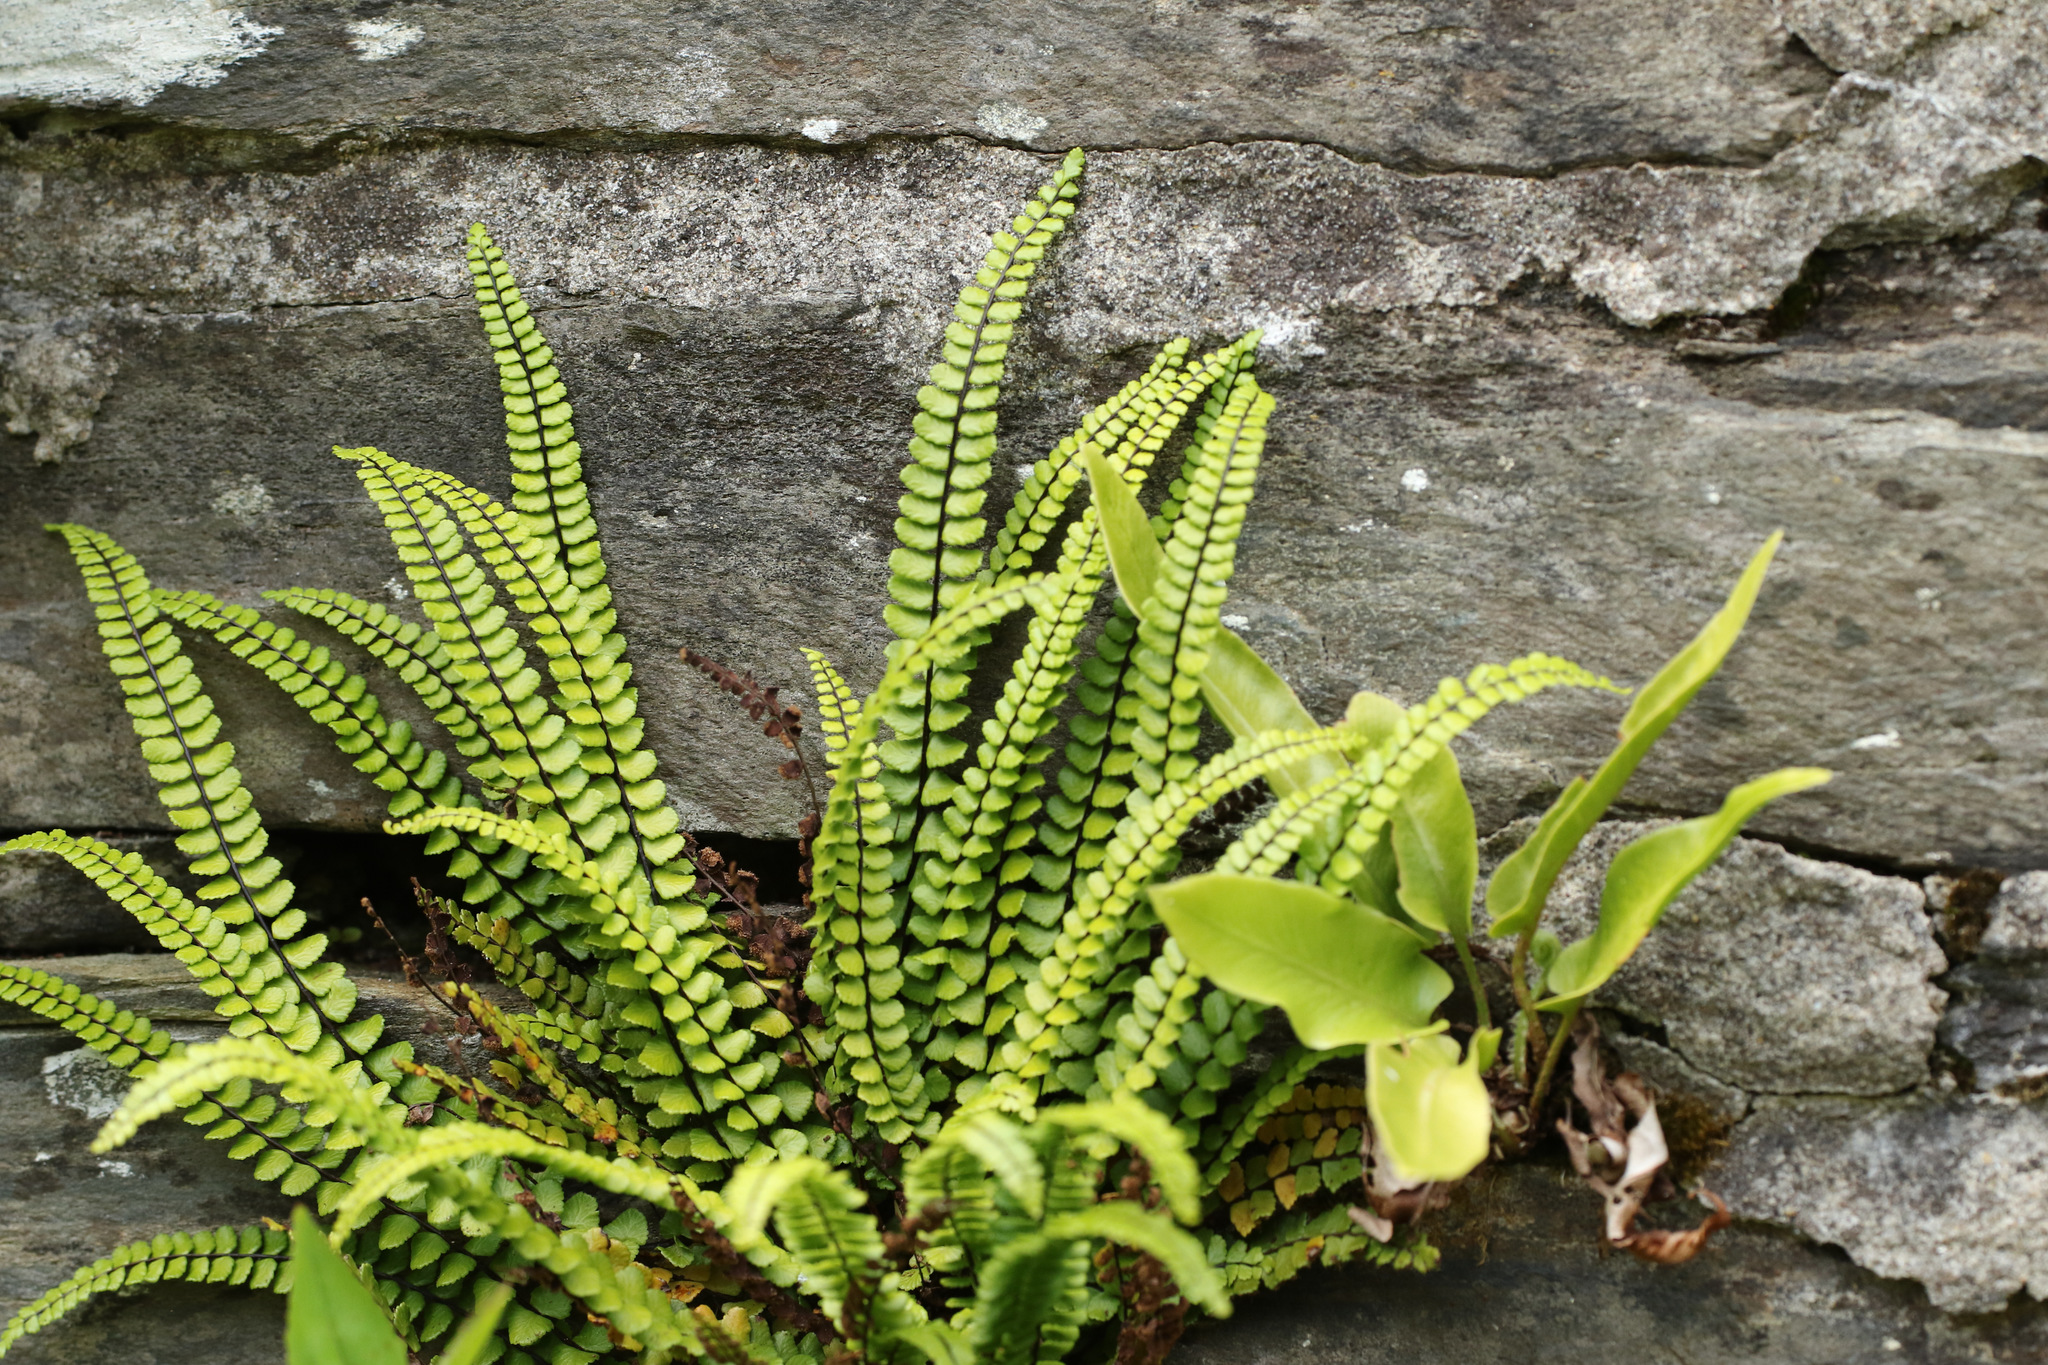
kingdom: Plantae
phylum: Tracheophyta
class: Polypodiopsida
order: Polypodiales
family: Aspleniaceae
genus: Asplenium
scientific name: Asplenium trichomanes
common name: Maidenhair spleenwort
